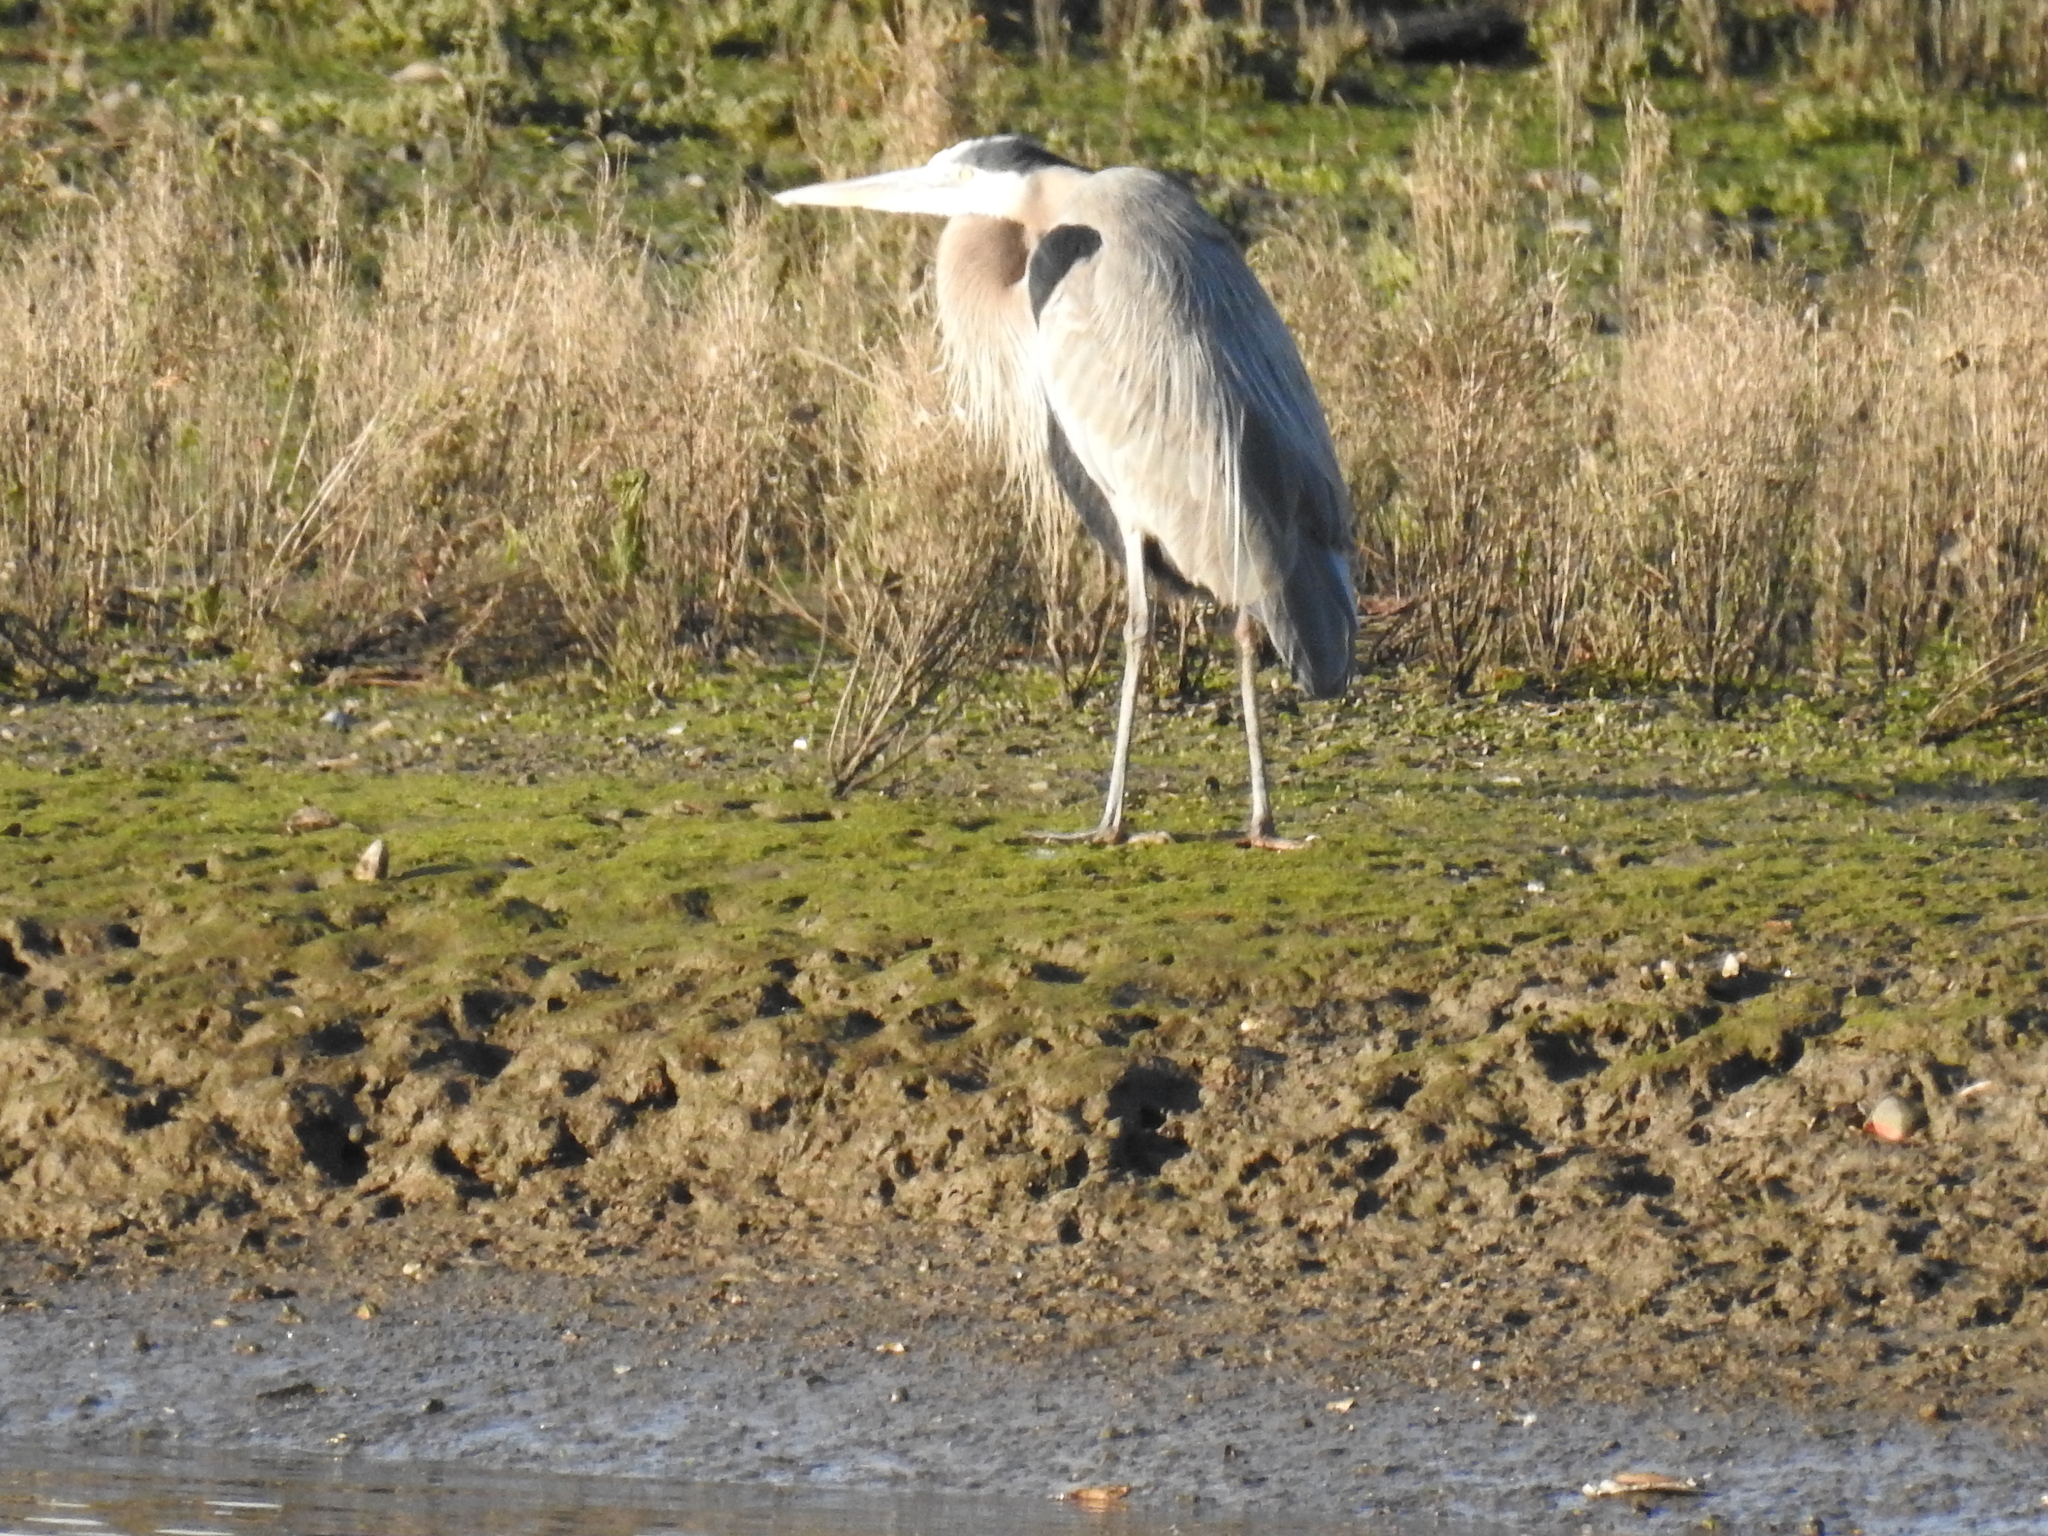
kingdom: Animalia
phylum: Chordata
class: Aves
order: Pelecaniformes
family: Ardeidae
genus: Ardea
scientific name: Ardea herodias
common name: Great blue heron
